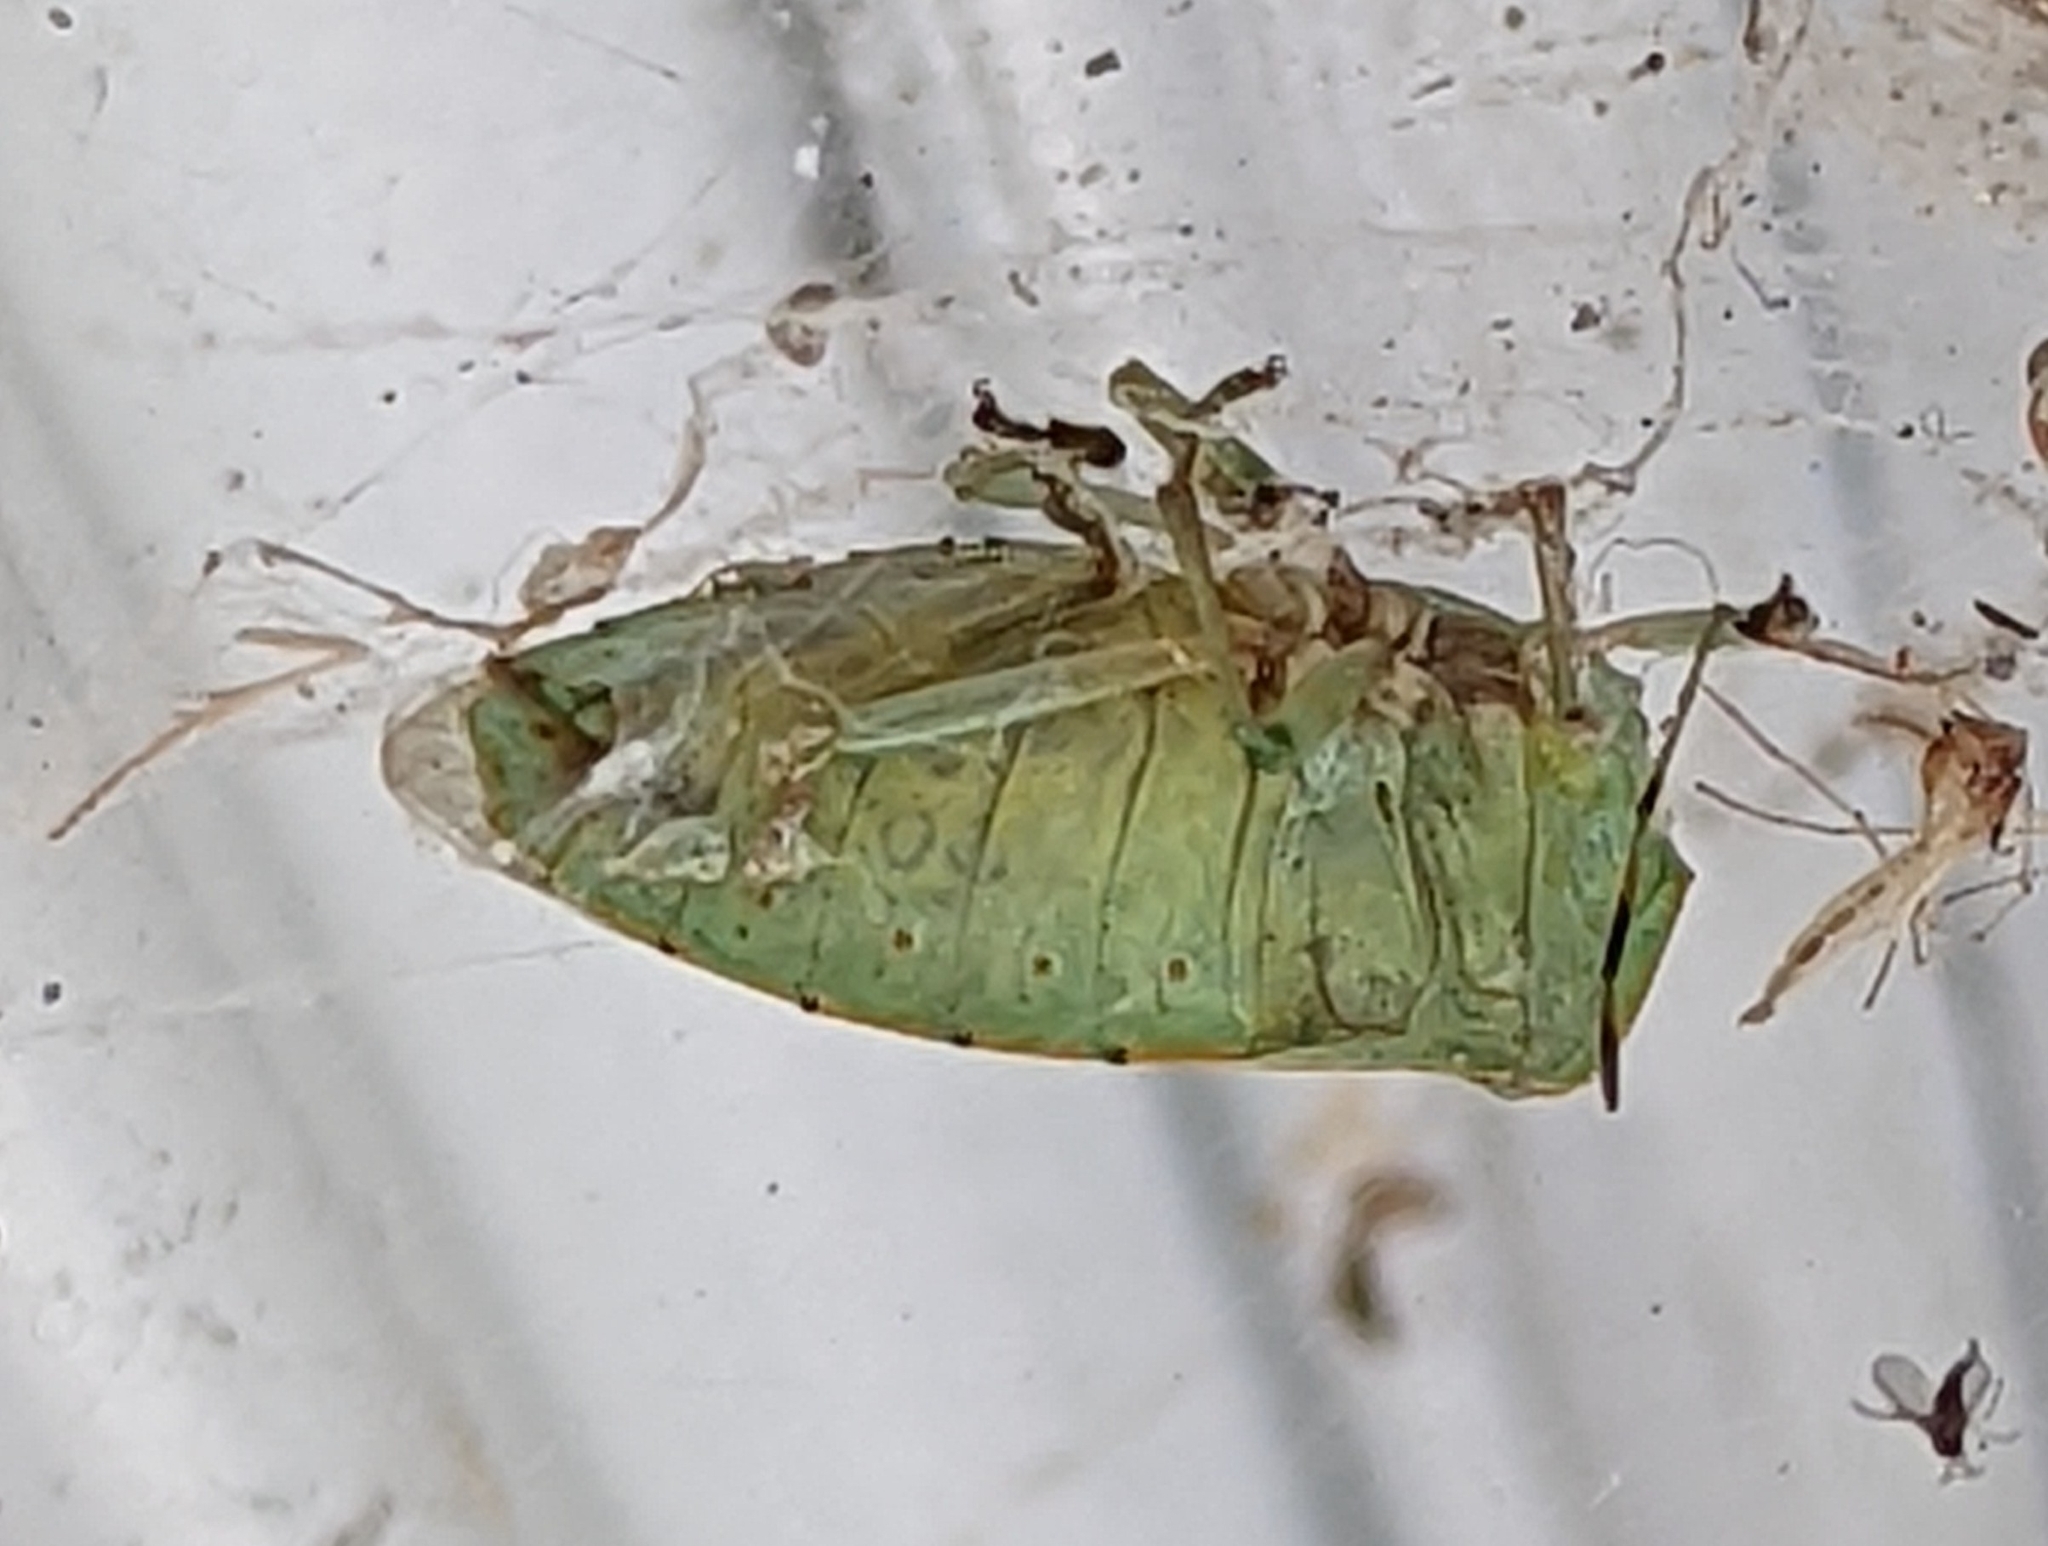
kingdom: Animalia
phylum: Arthropoda
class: Insecta
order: Hemiptera
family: Pentatomidae
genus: Chinavia
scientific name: Chinavia hilaris
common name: Green stink bug
